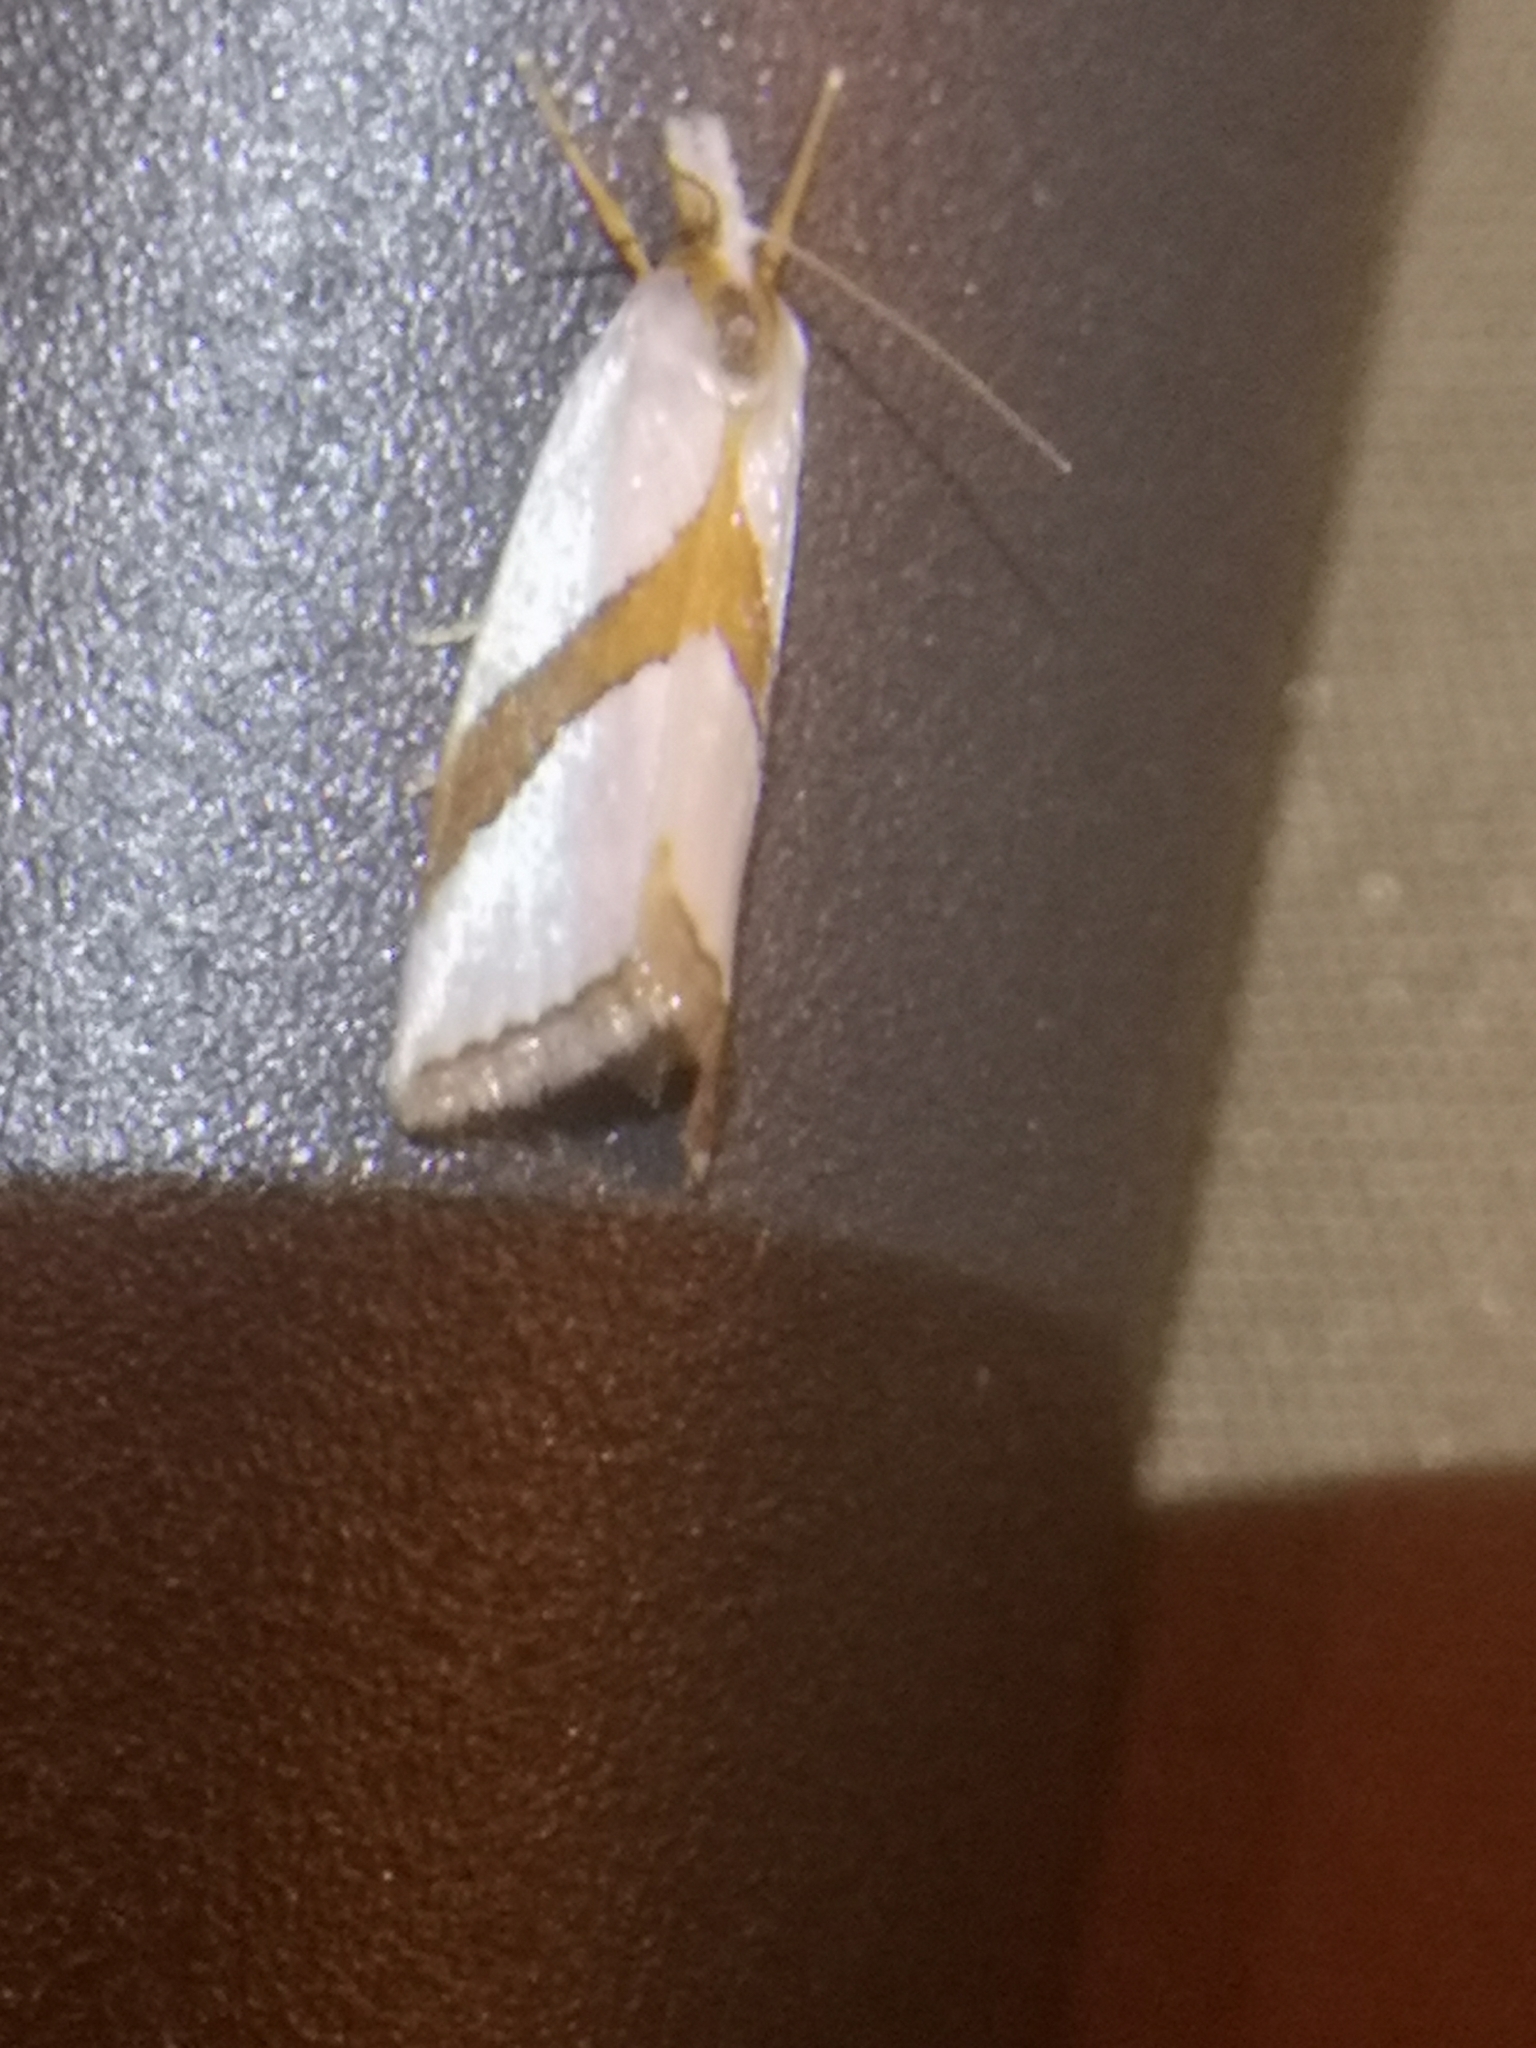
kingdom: Animalia
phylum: Arthropoda
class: Insecta
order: Lepidoptera
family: Crambidae
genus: Vaxi
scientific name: Vaxi critica
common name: Straight-lined vaxi moth
